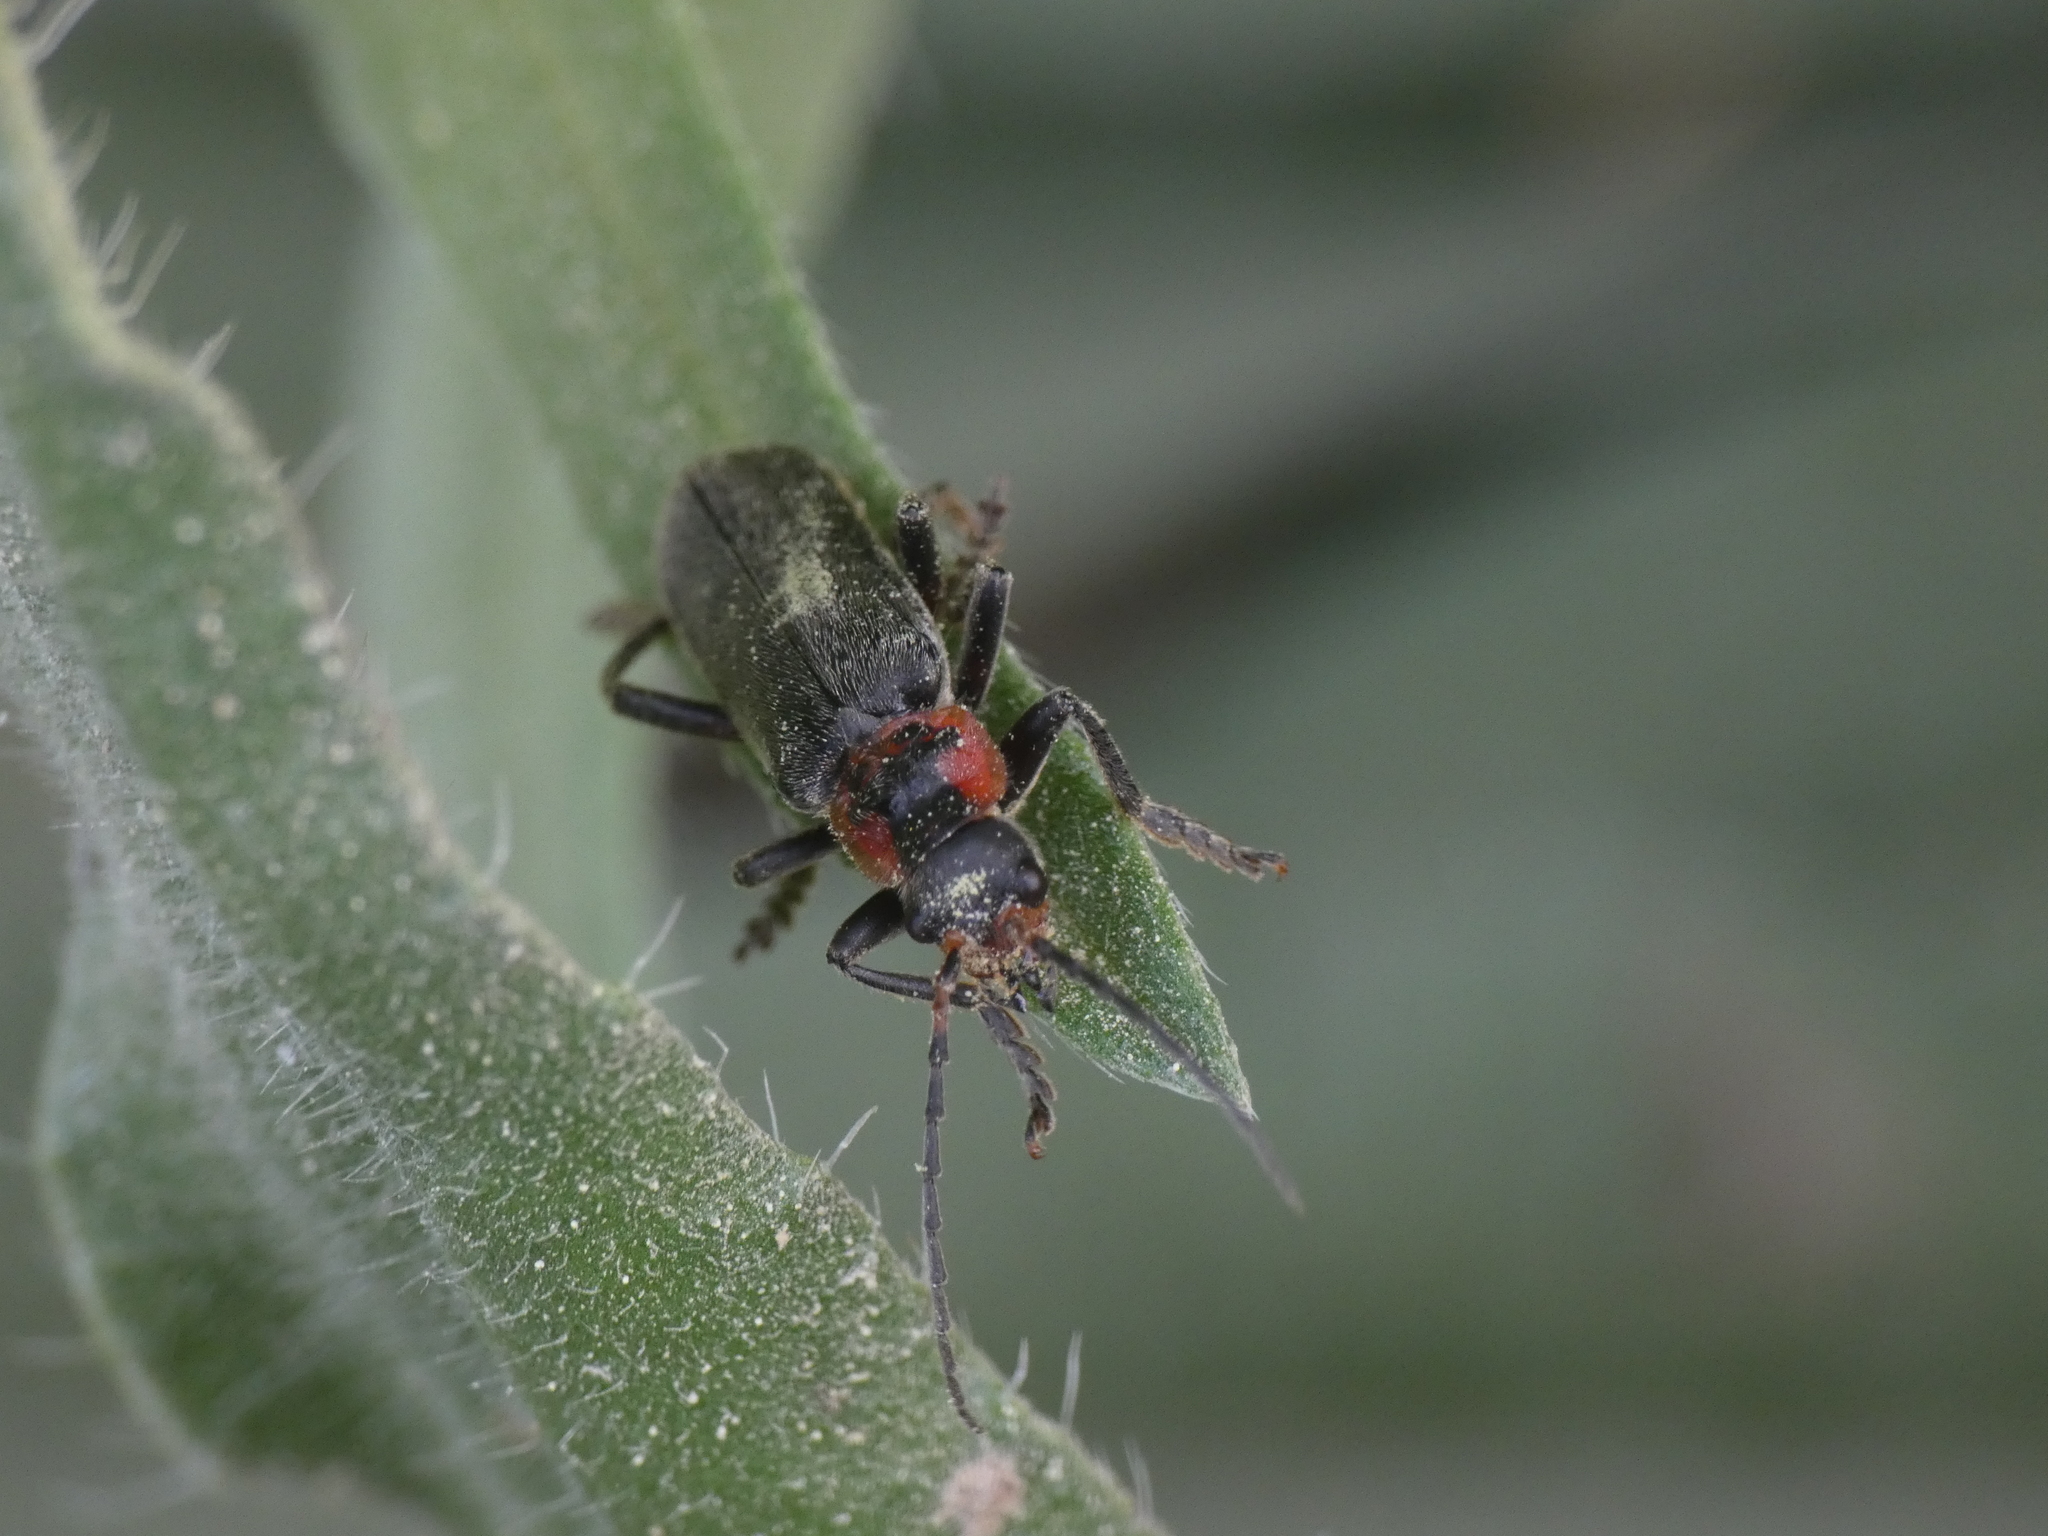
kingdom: Animalia
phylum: Arthropoda
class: Insecta
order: Coleoptera
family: Cantharidae
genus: Cantharis
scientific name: Cantharis fusca
